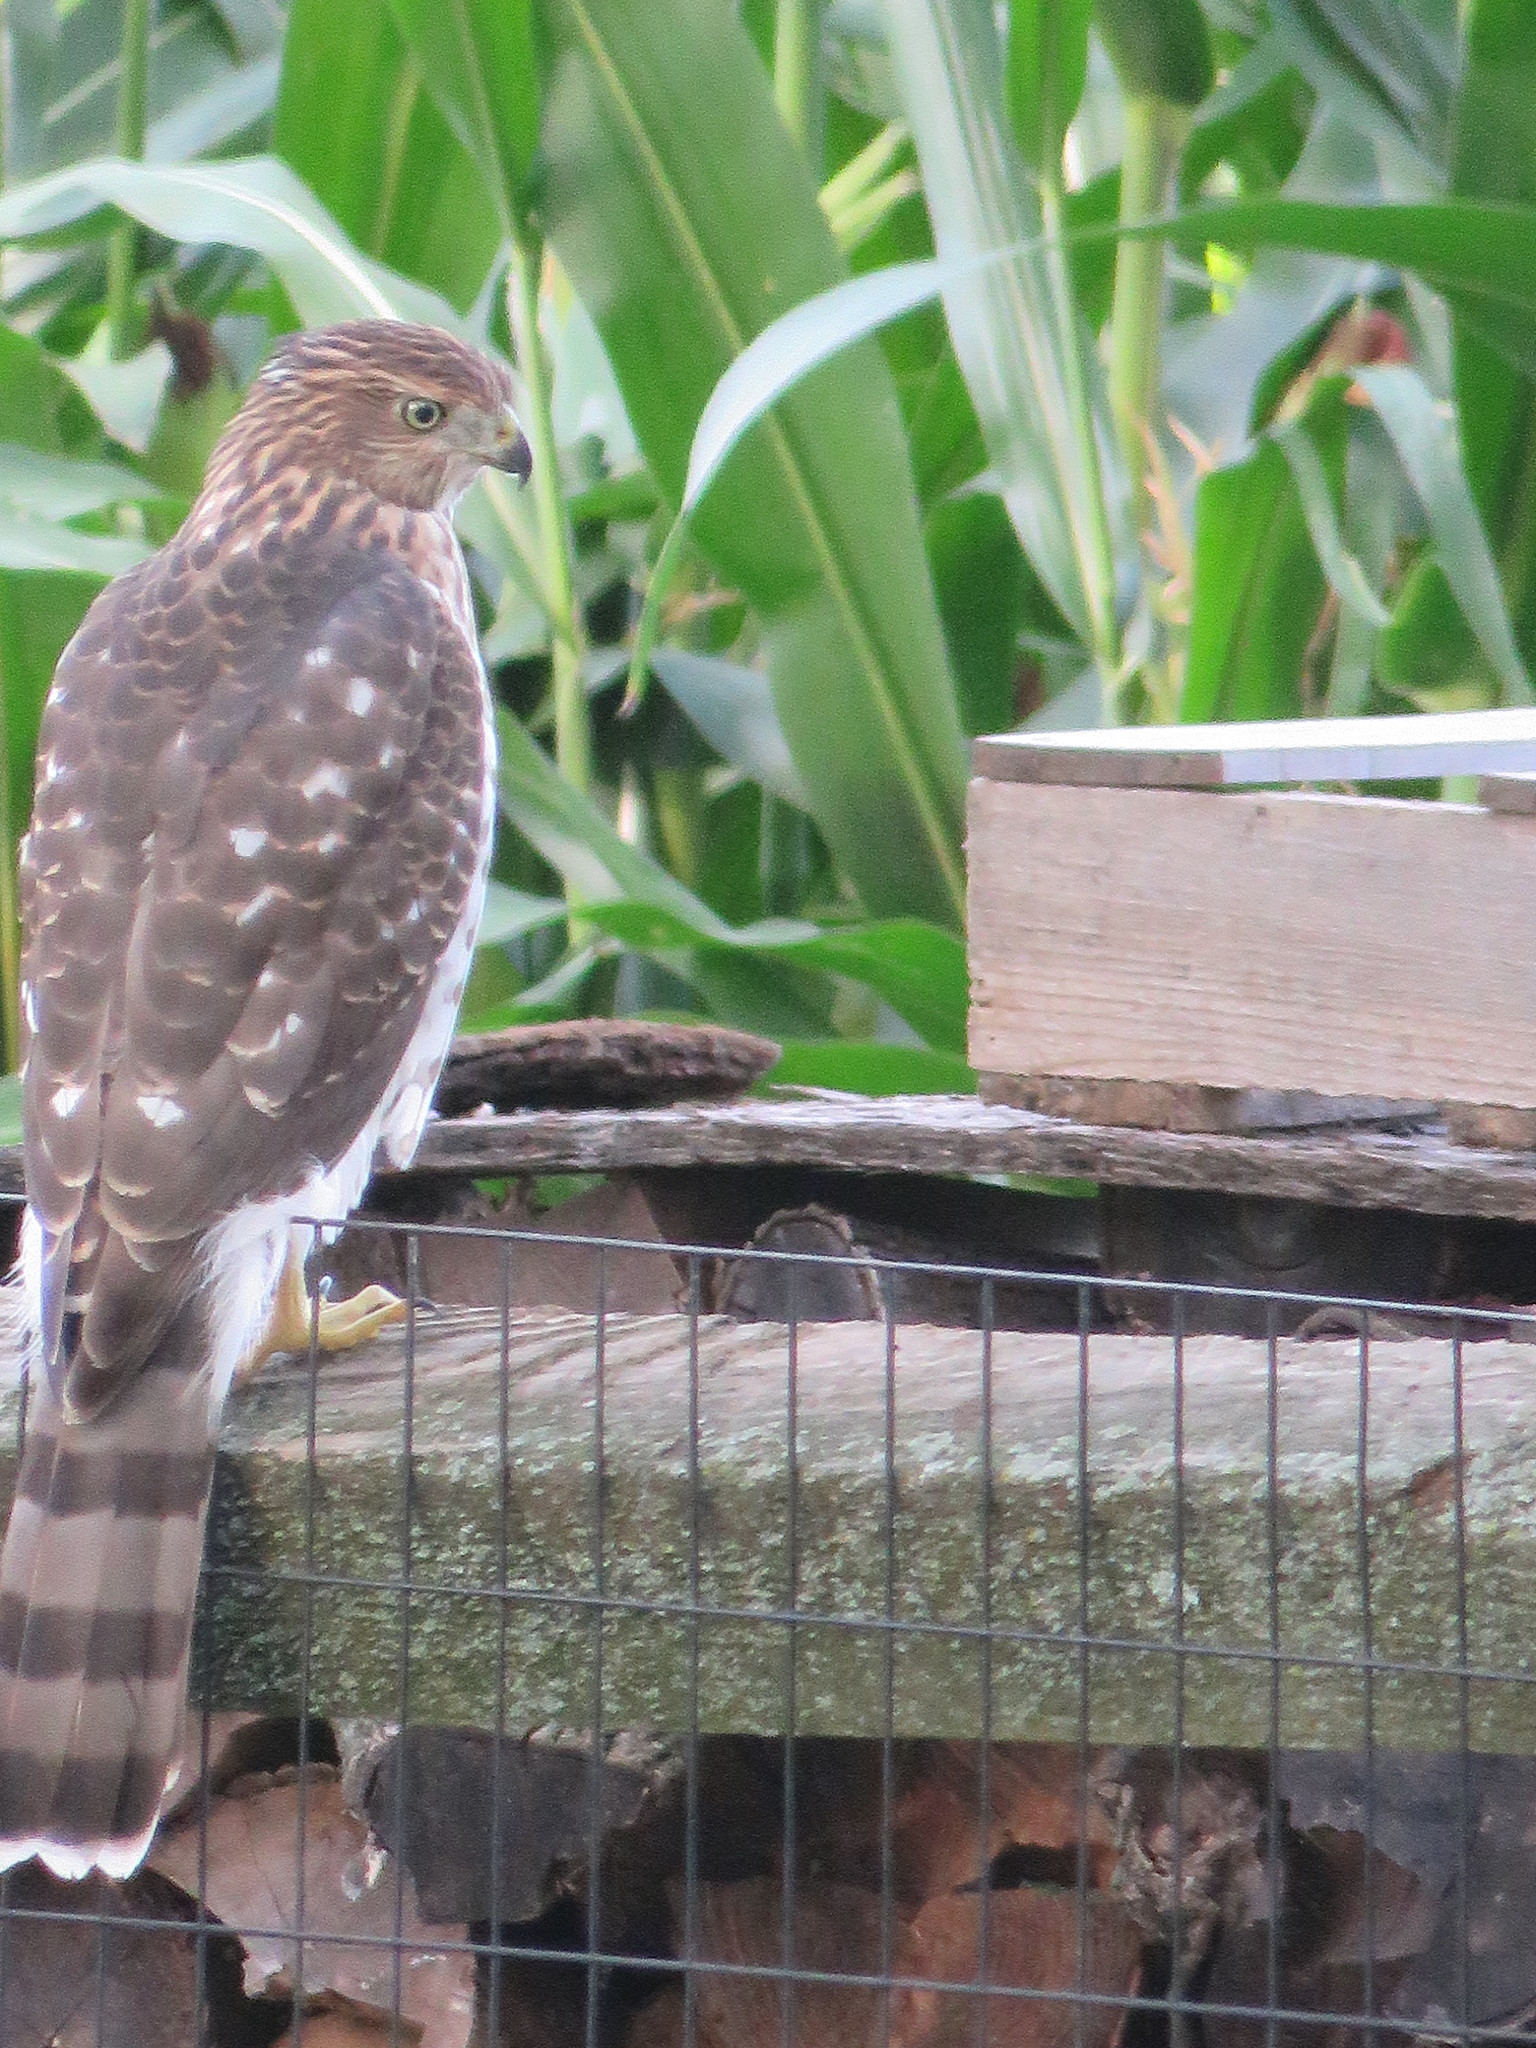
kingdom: Animalia
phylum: Chordata
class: Aves
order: Accipitriformes
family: Accipitridae
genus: Accipiter
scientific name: Accipiter cooperii
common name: Cooper's hawk
